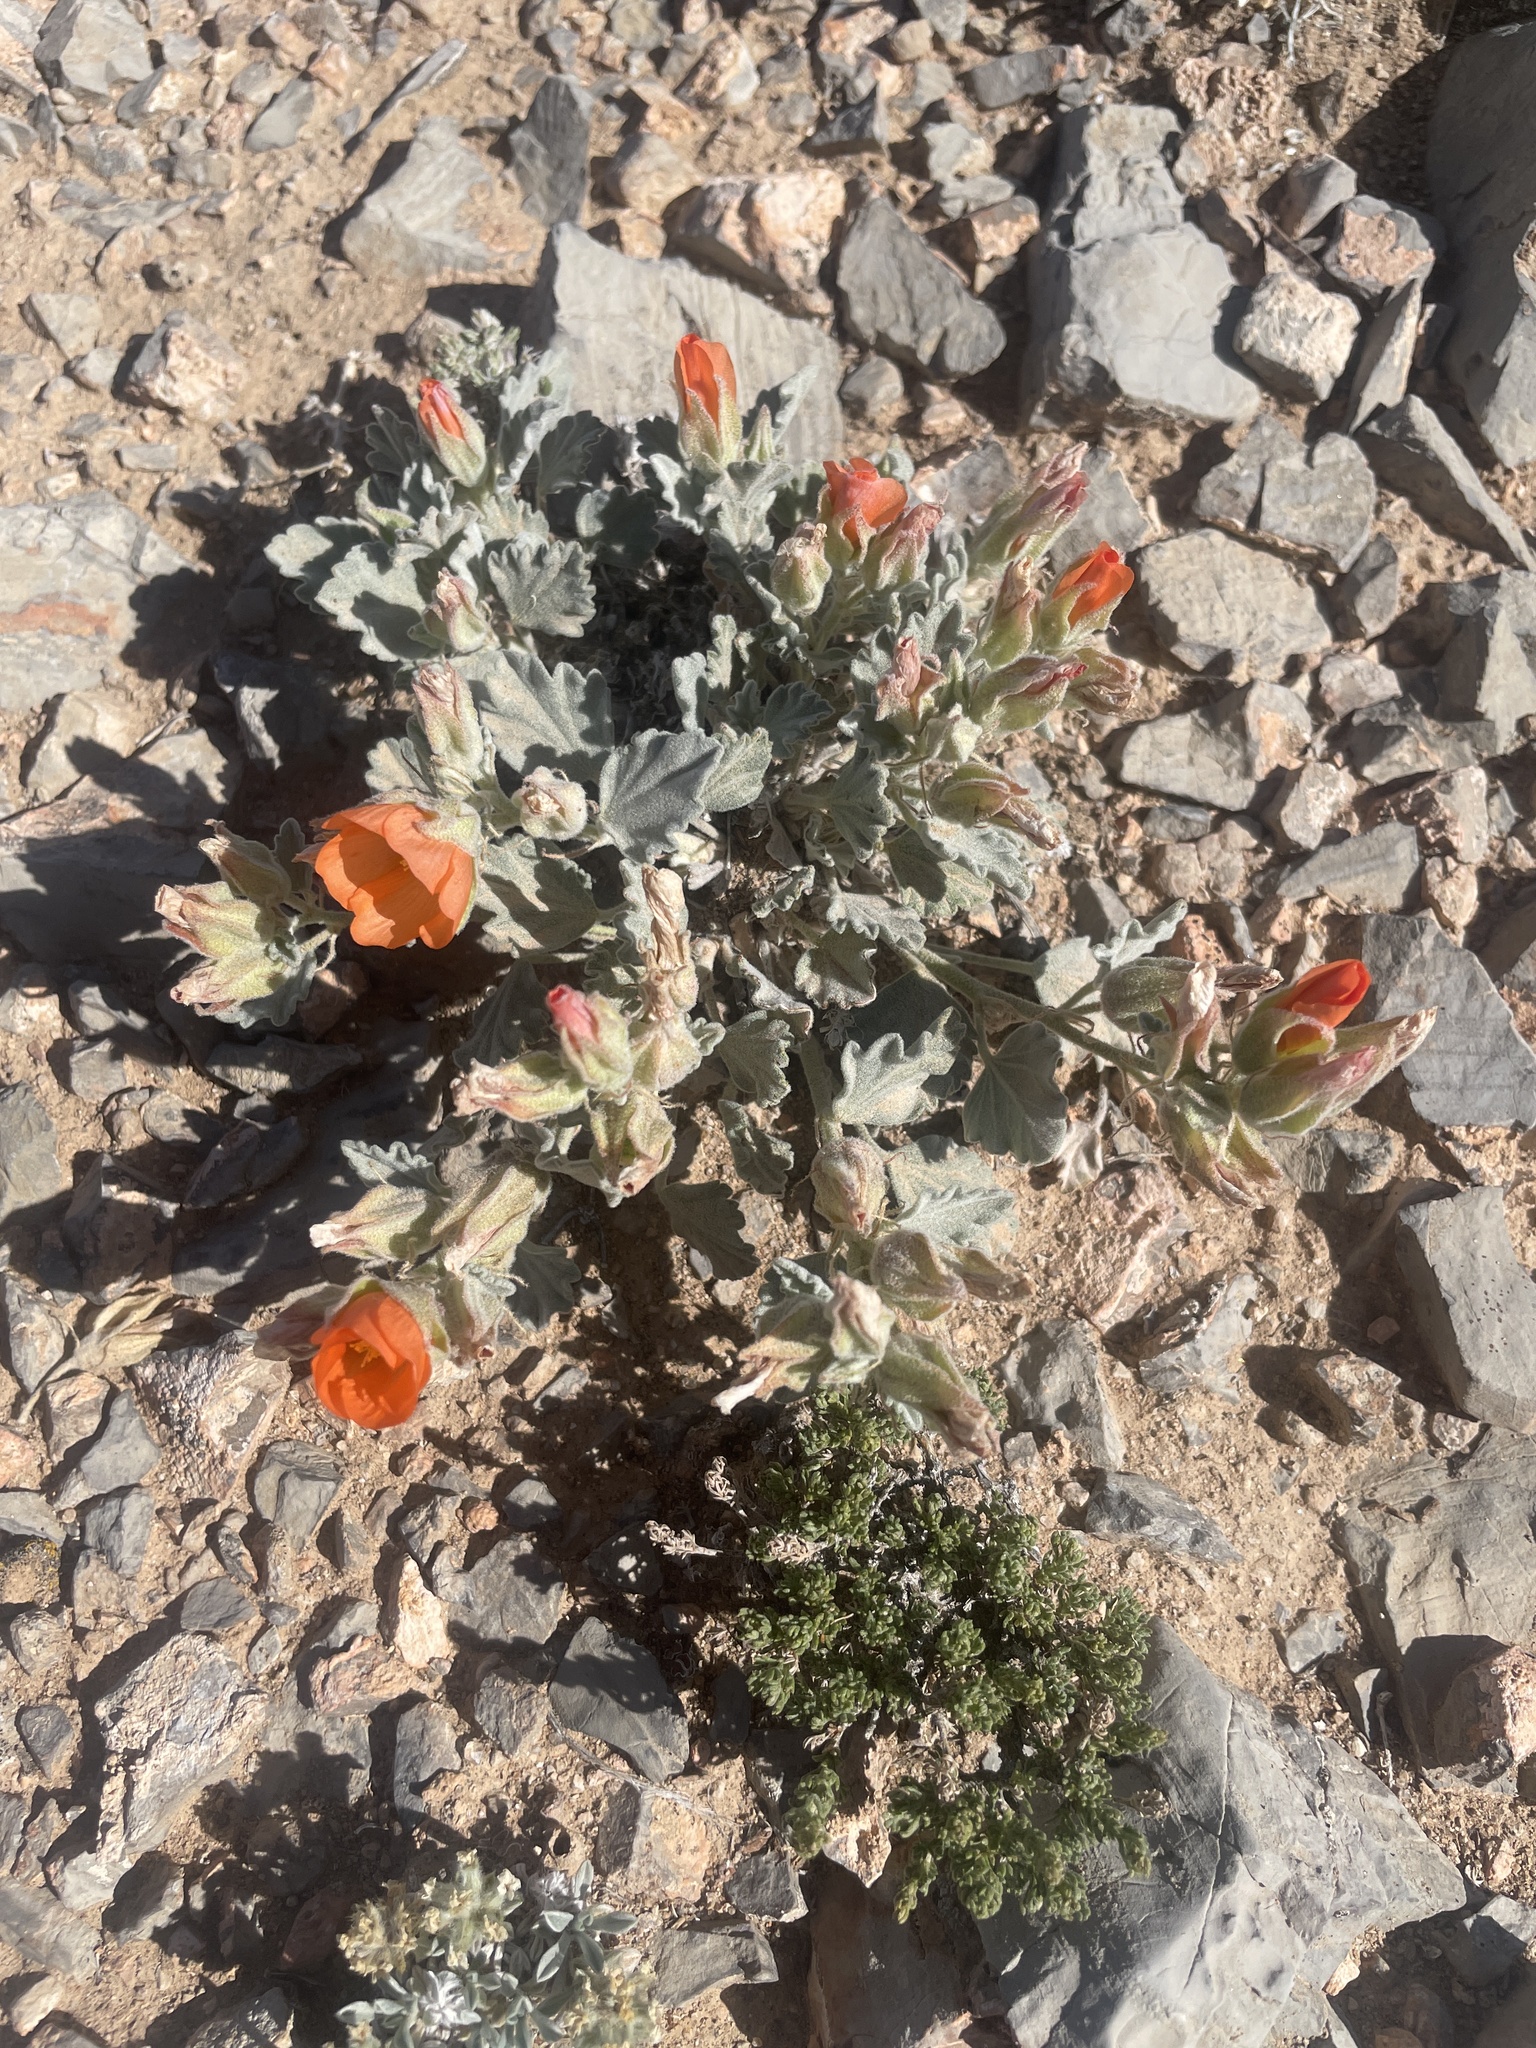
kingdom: Plantae
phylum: Tracheophyta
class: Magnoliopsida
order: Malvales
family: Malvaceae
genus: Sphaeralcea
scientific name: Sphaeralcea caespitosa
